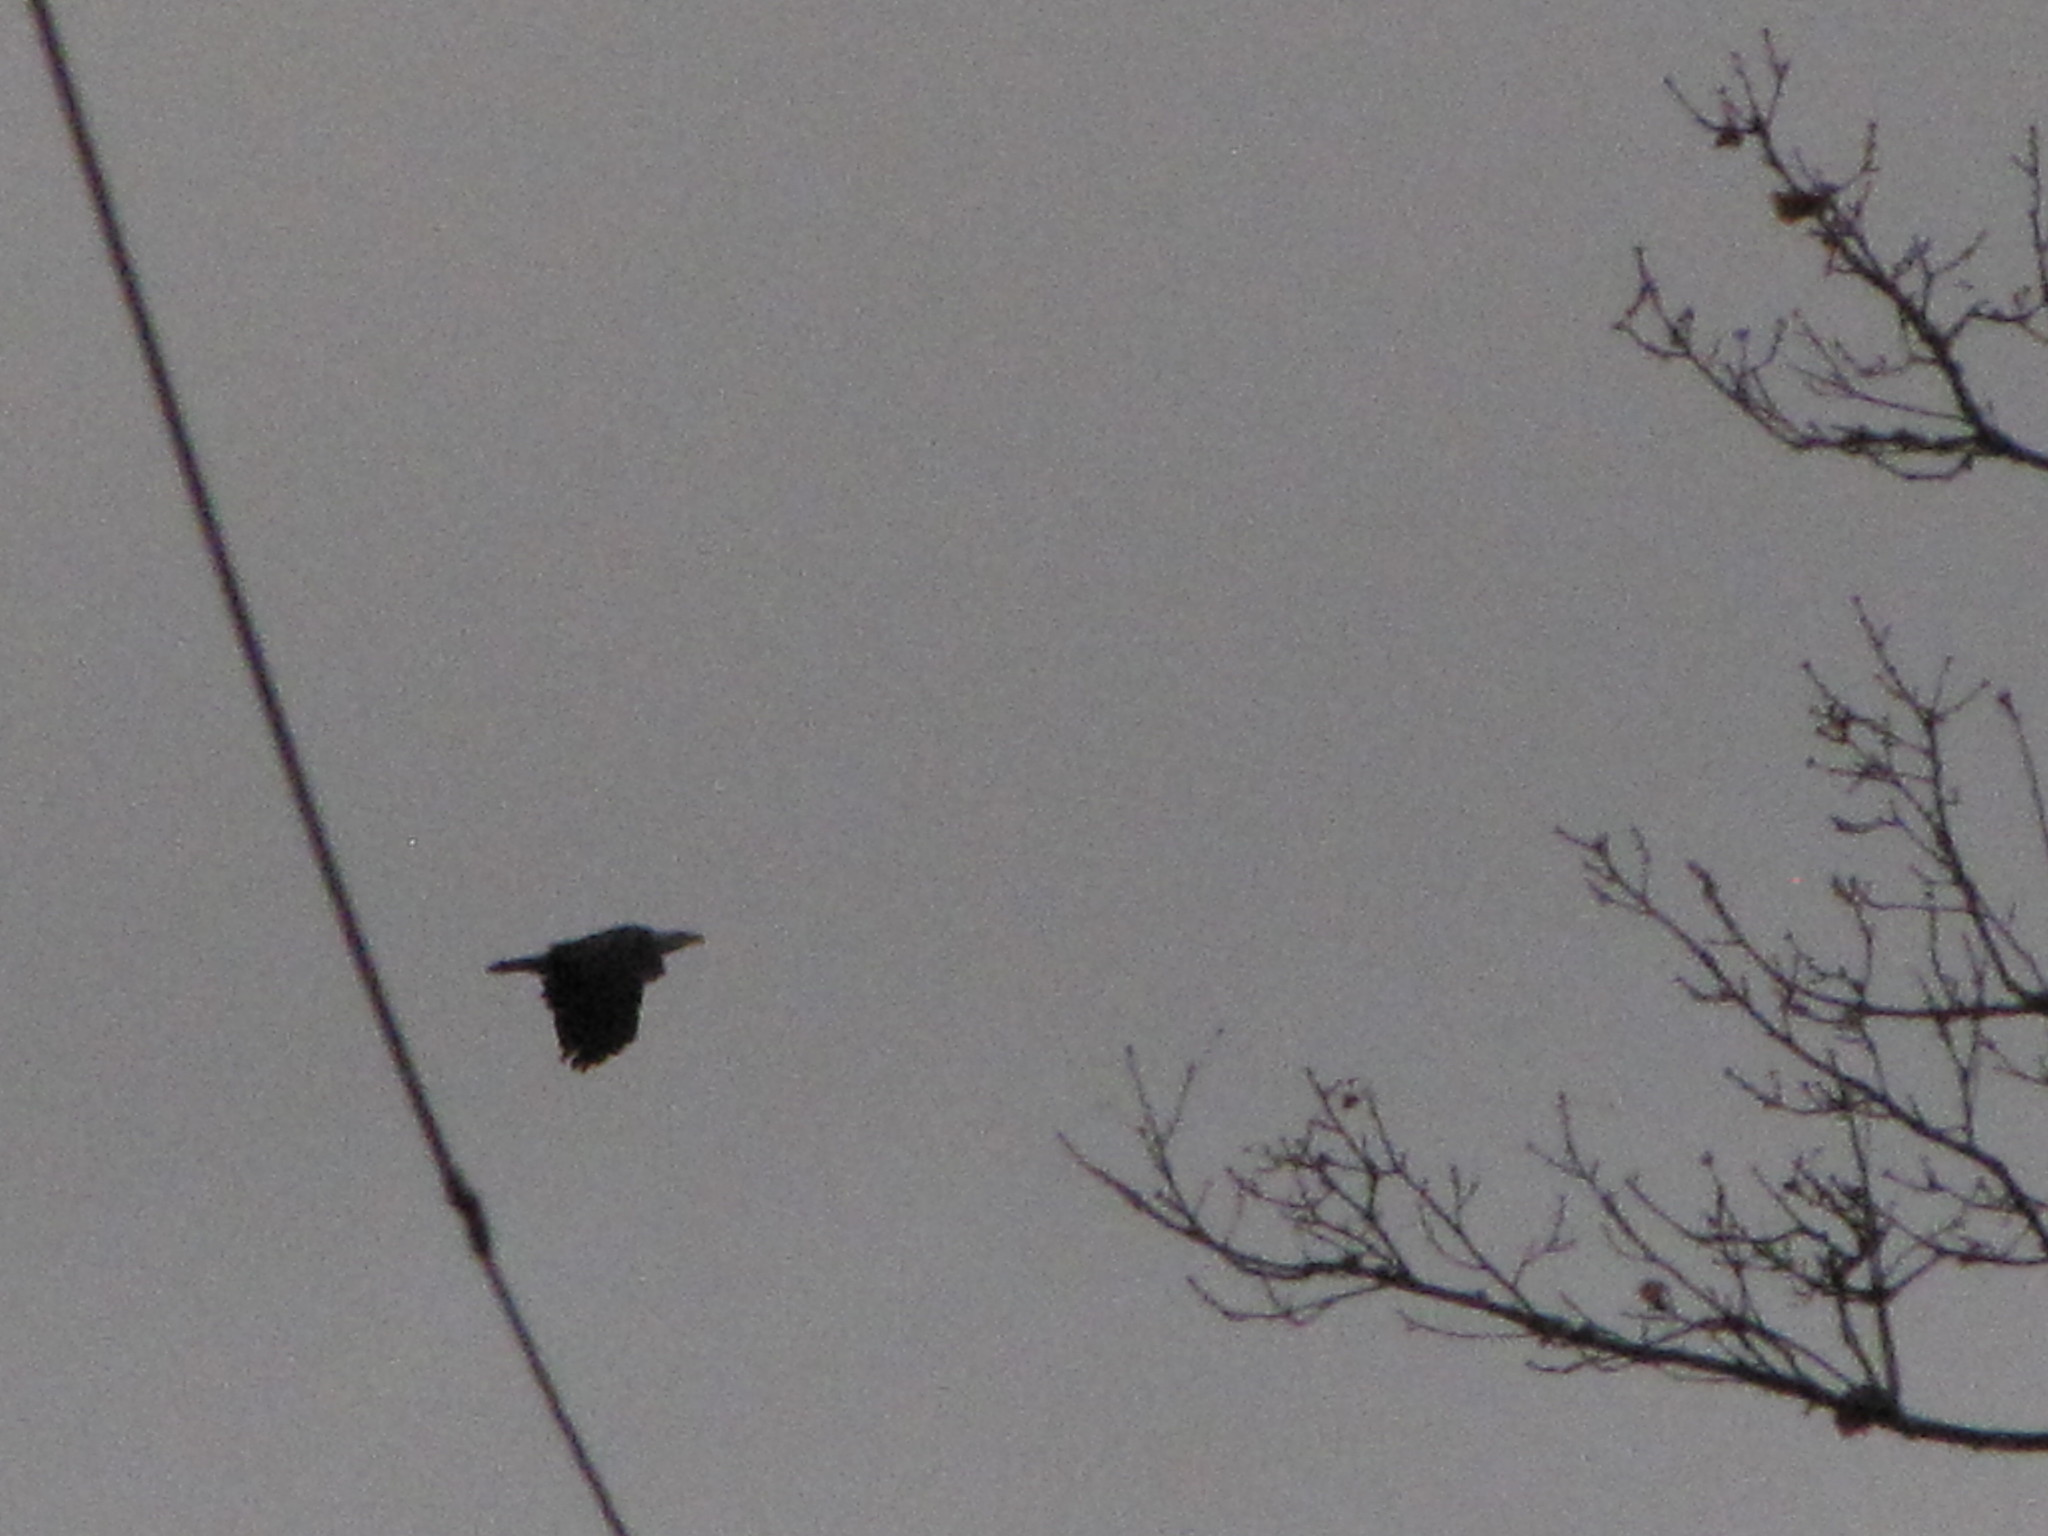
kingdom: Animalia
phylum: Chordata
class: Aves
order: Accipitriformes
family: Accipitridae
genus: Haliaeetus
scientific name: Haliaeetus leucocephalus
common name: Bald eagle
